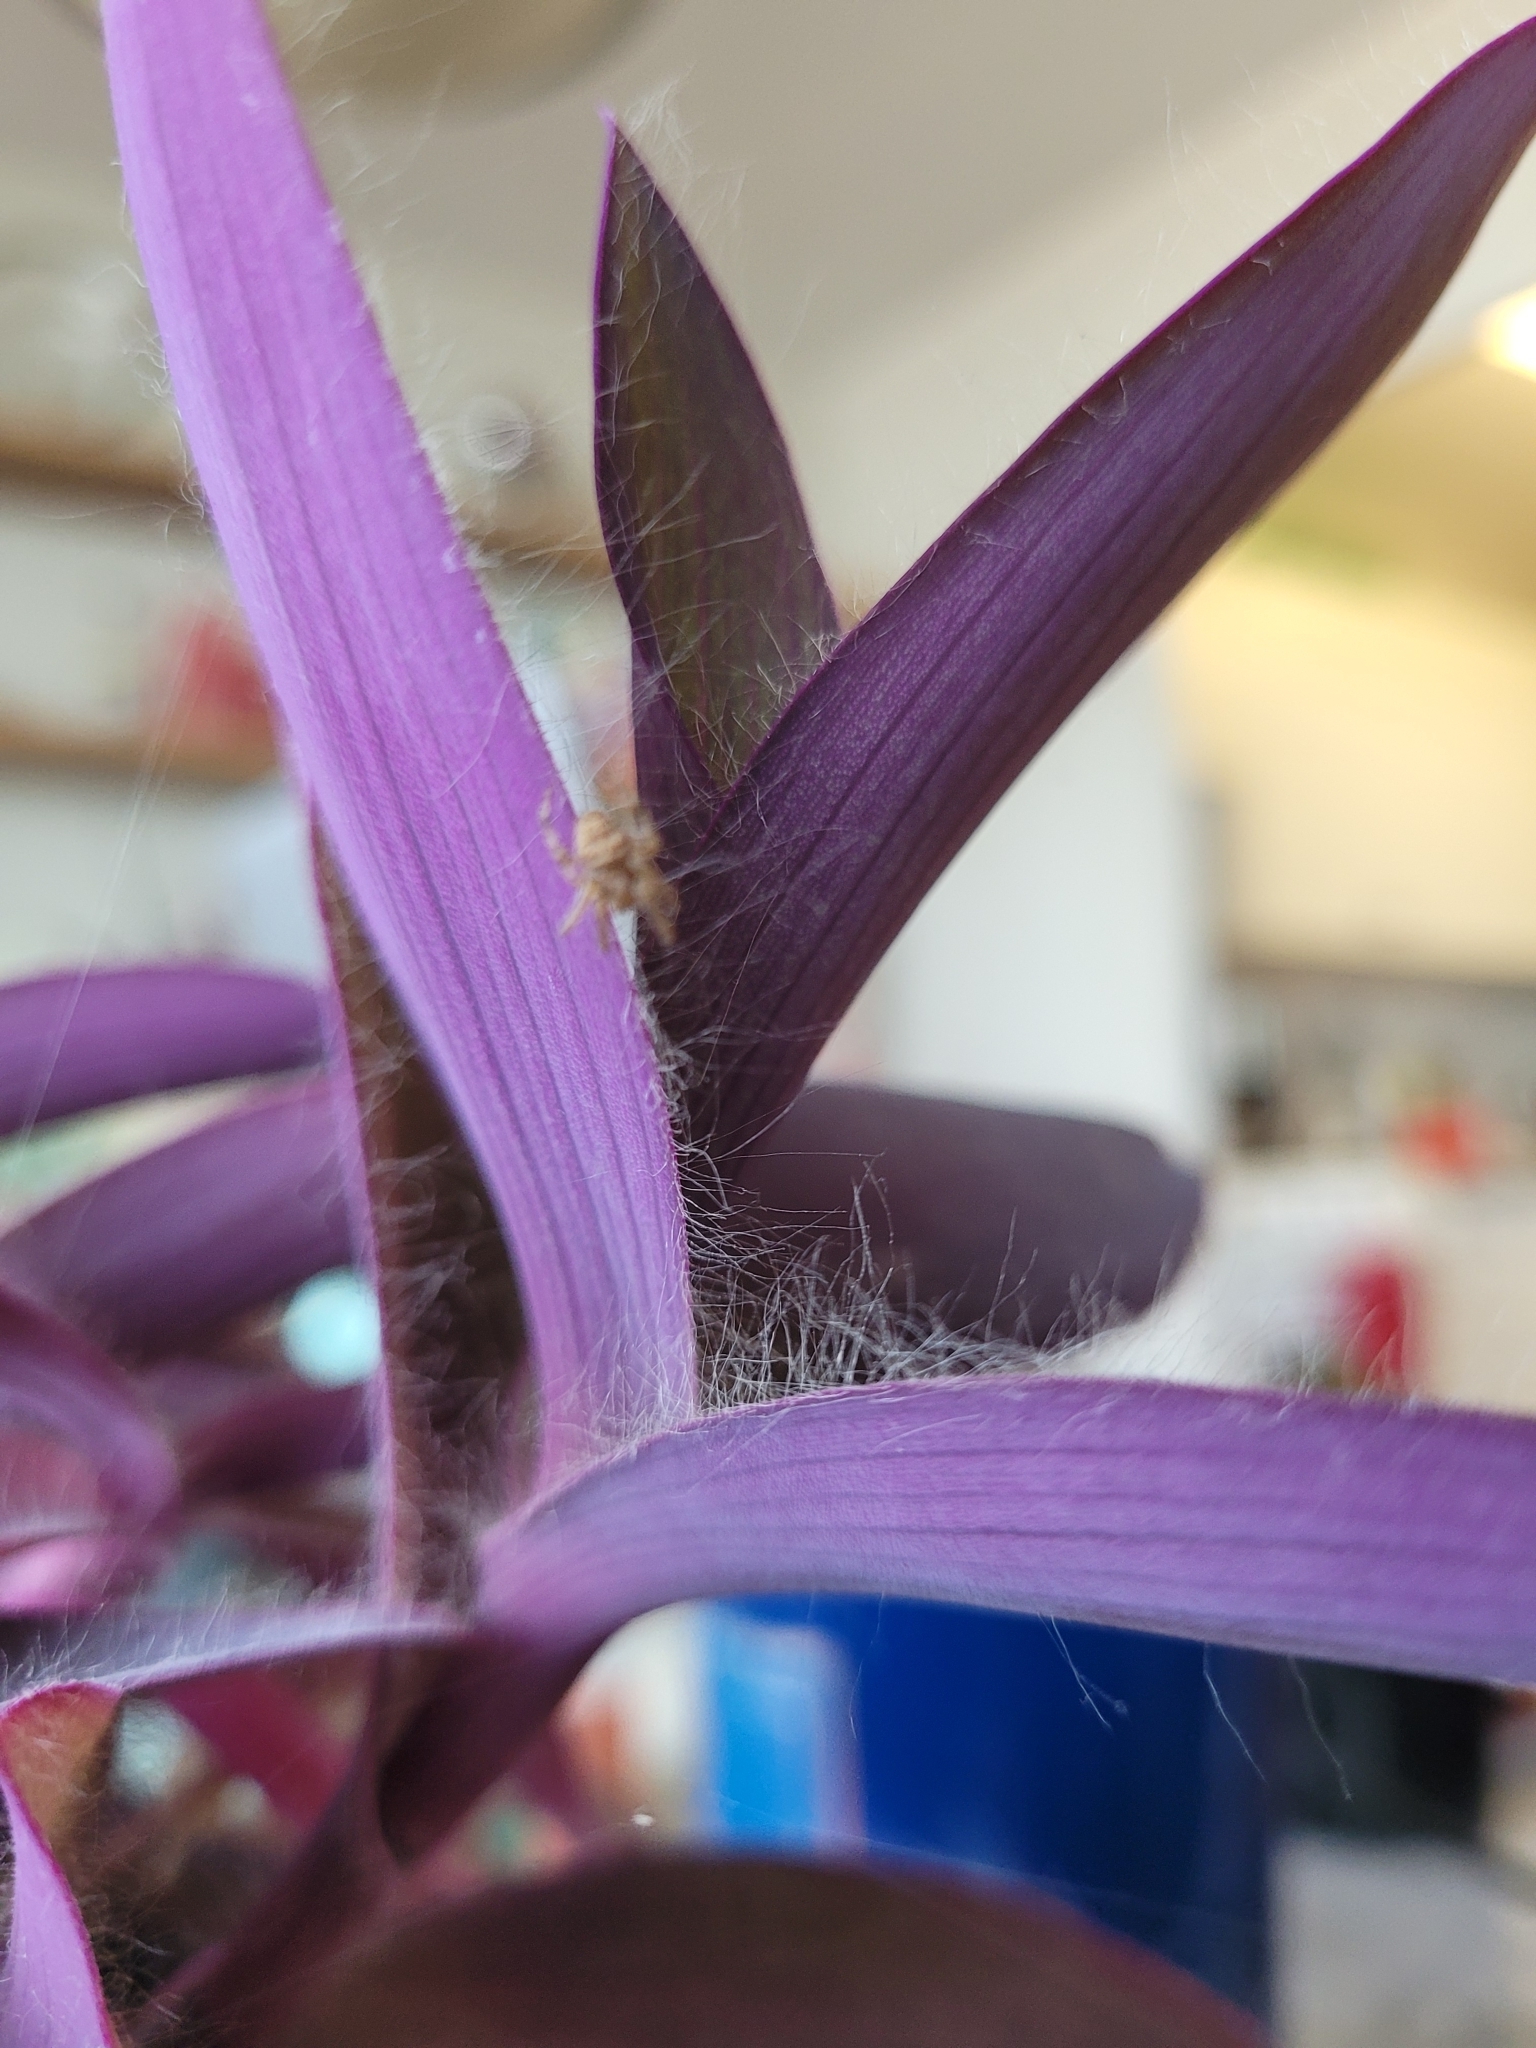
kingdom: Animalia
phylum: Arthropoda
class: Arachnida
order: Araneae
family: Araneidae
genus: Larinioides
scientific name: Larinioides sclopetarius
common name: Bridge orbweaver
